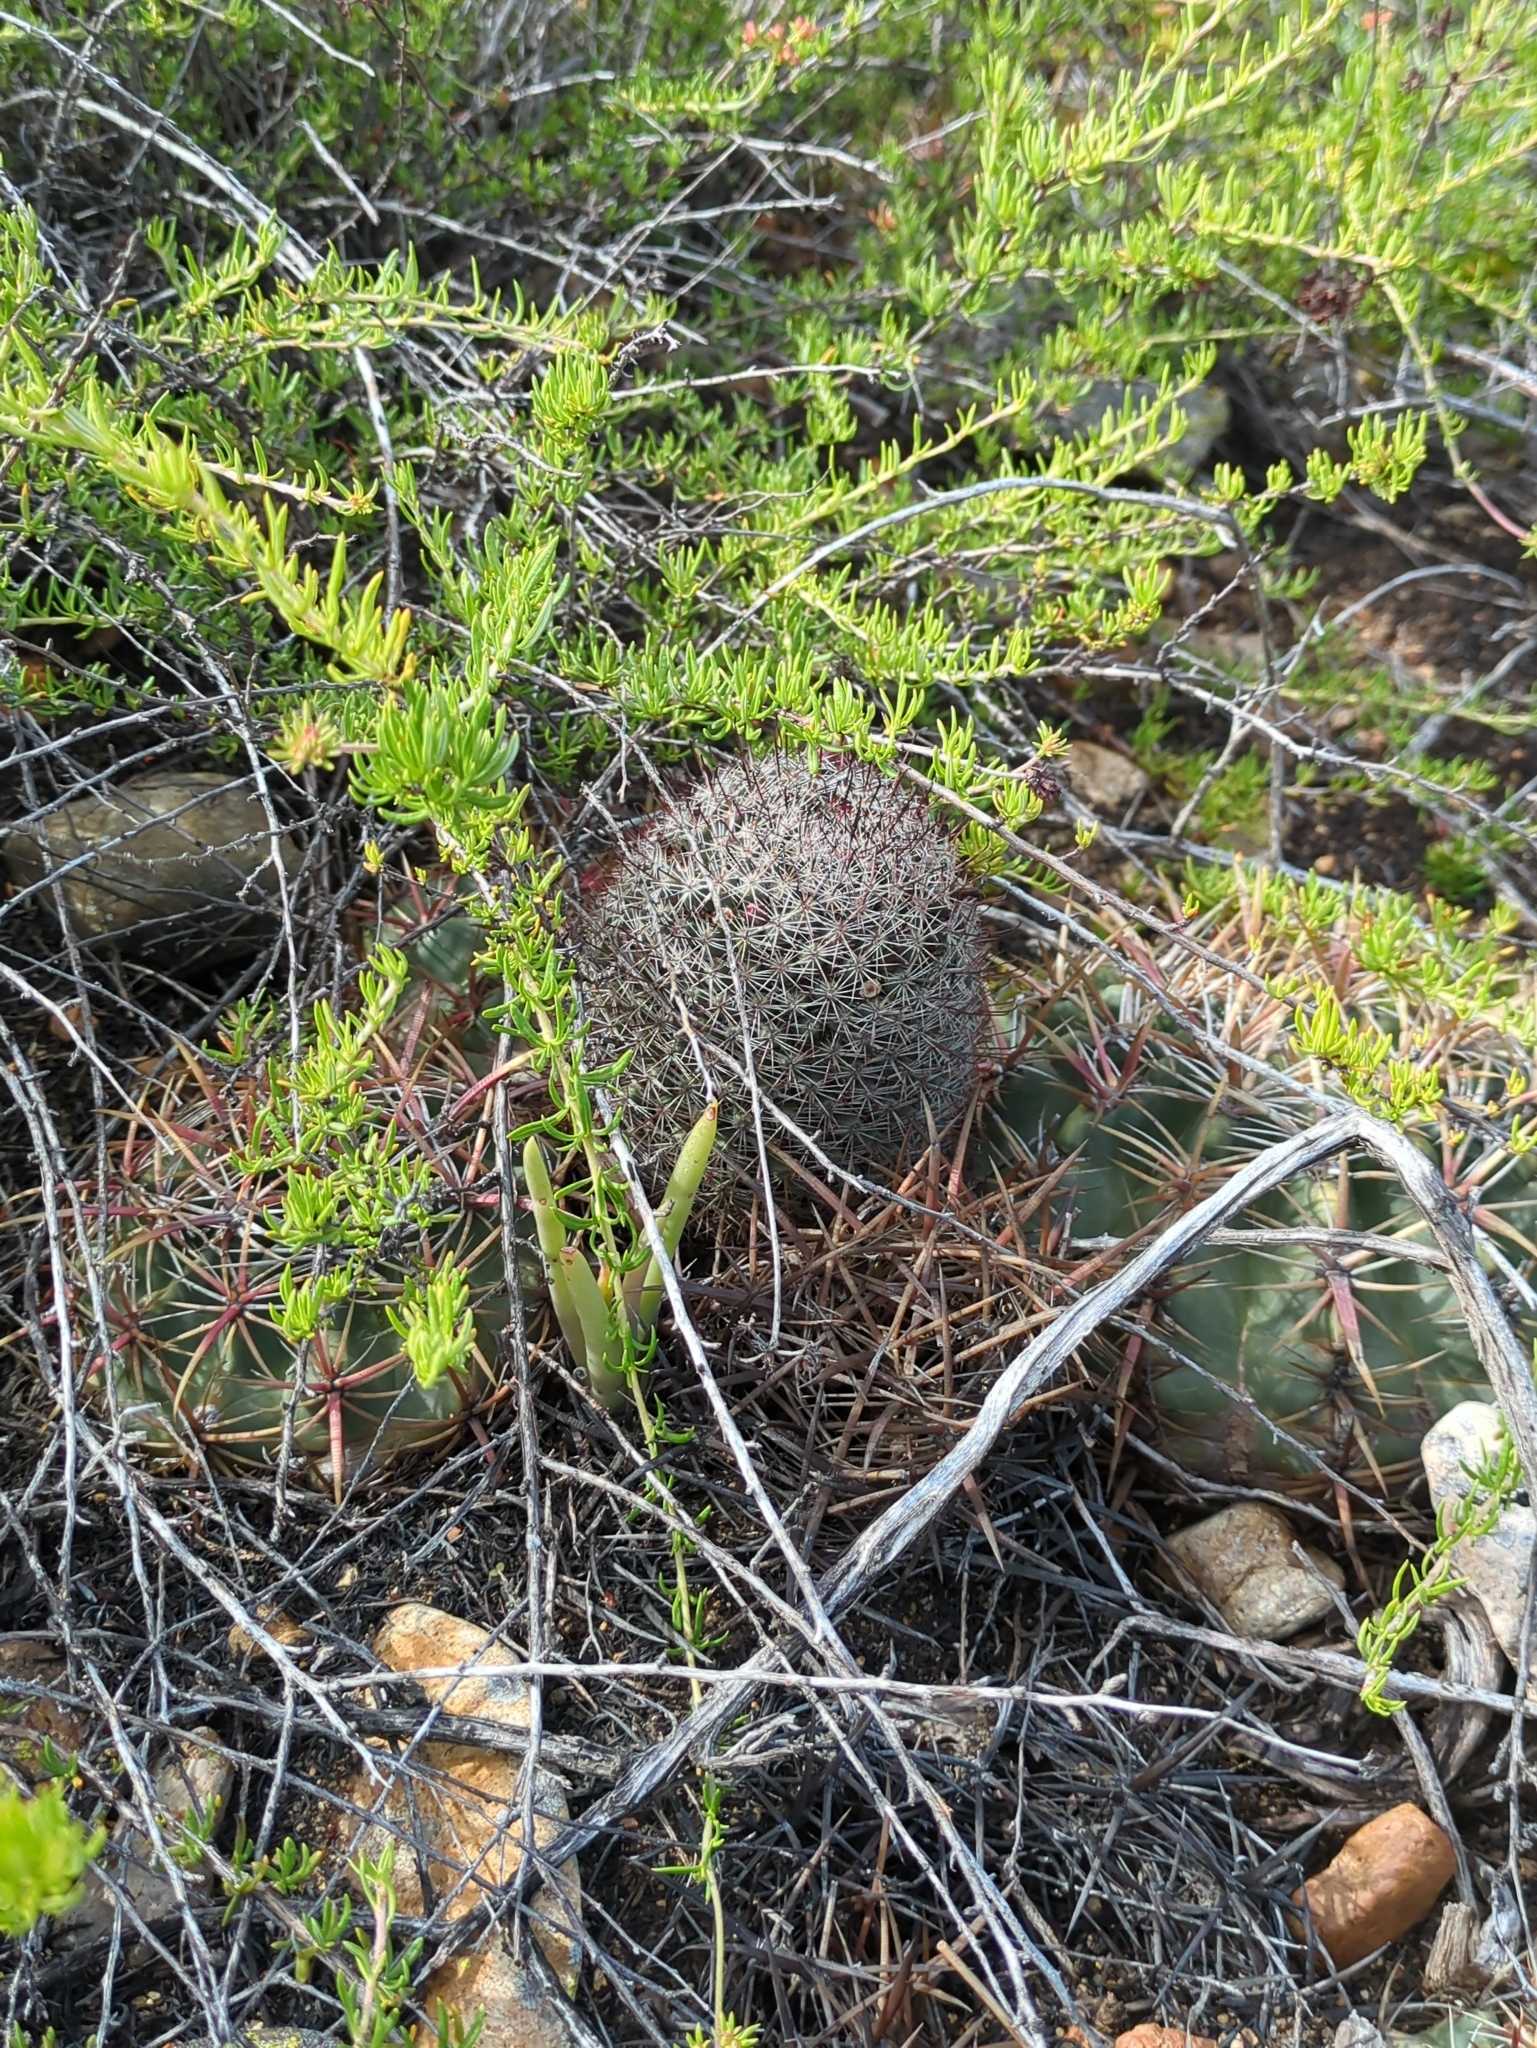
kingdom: Plantae
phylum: Tracheophyta
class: Magnoliopsida
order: Caryophyllales
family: Cactaceae
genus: Cochemiea
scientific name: Cochemiea dioica
